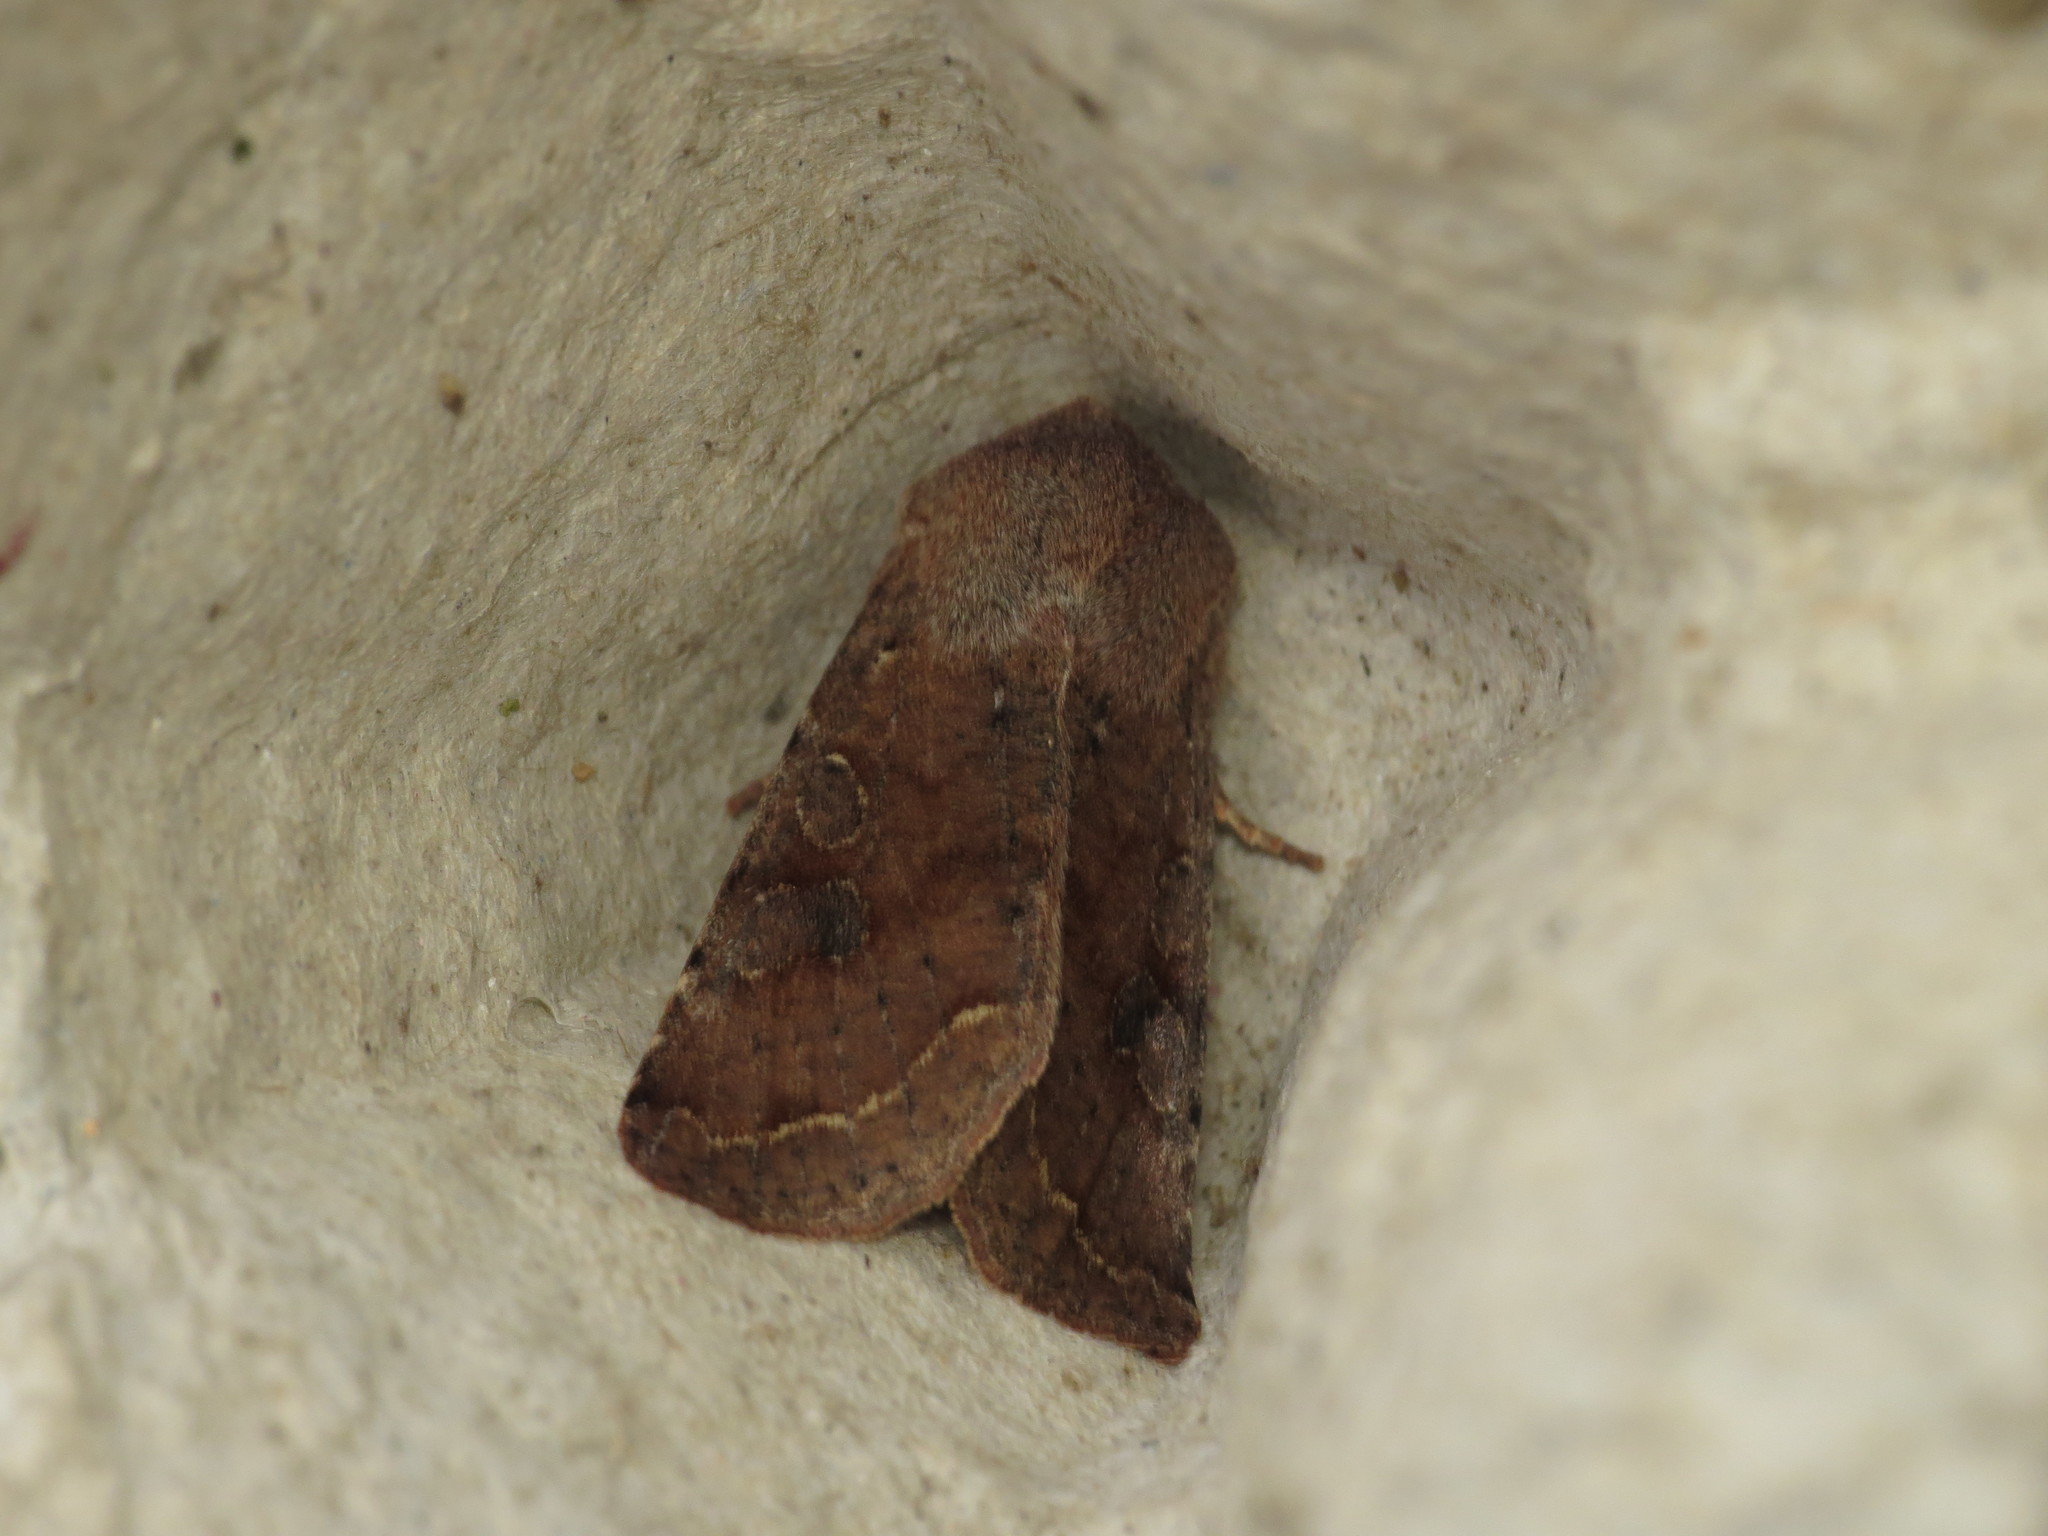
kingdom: Animalia
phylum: Arthropoda
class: Insecta
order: Lepidoptera
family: Noctuidae
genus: Orthosia
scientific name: Orthosia incerta
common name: Clouded drab
